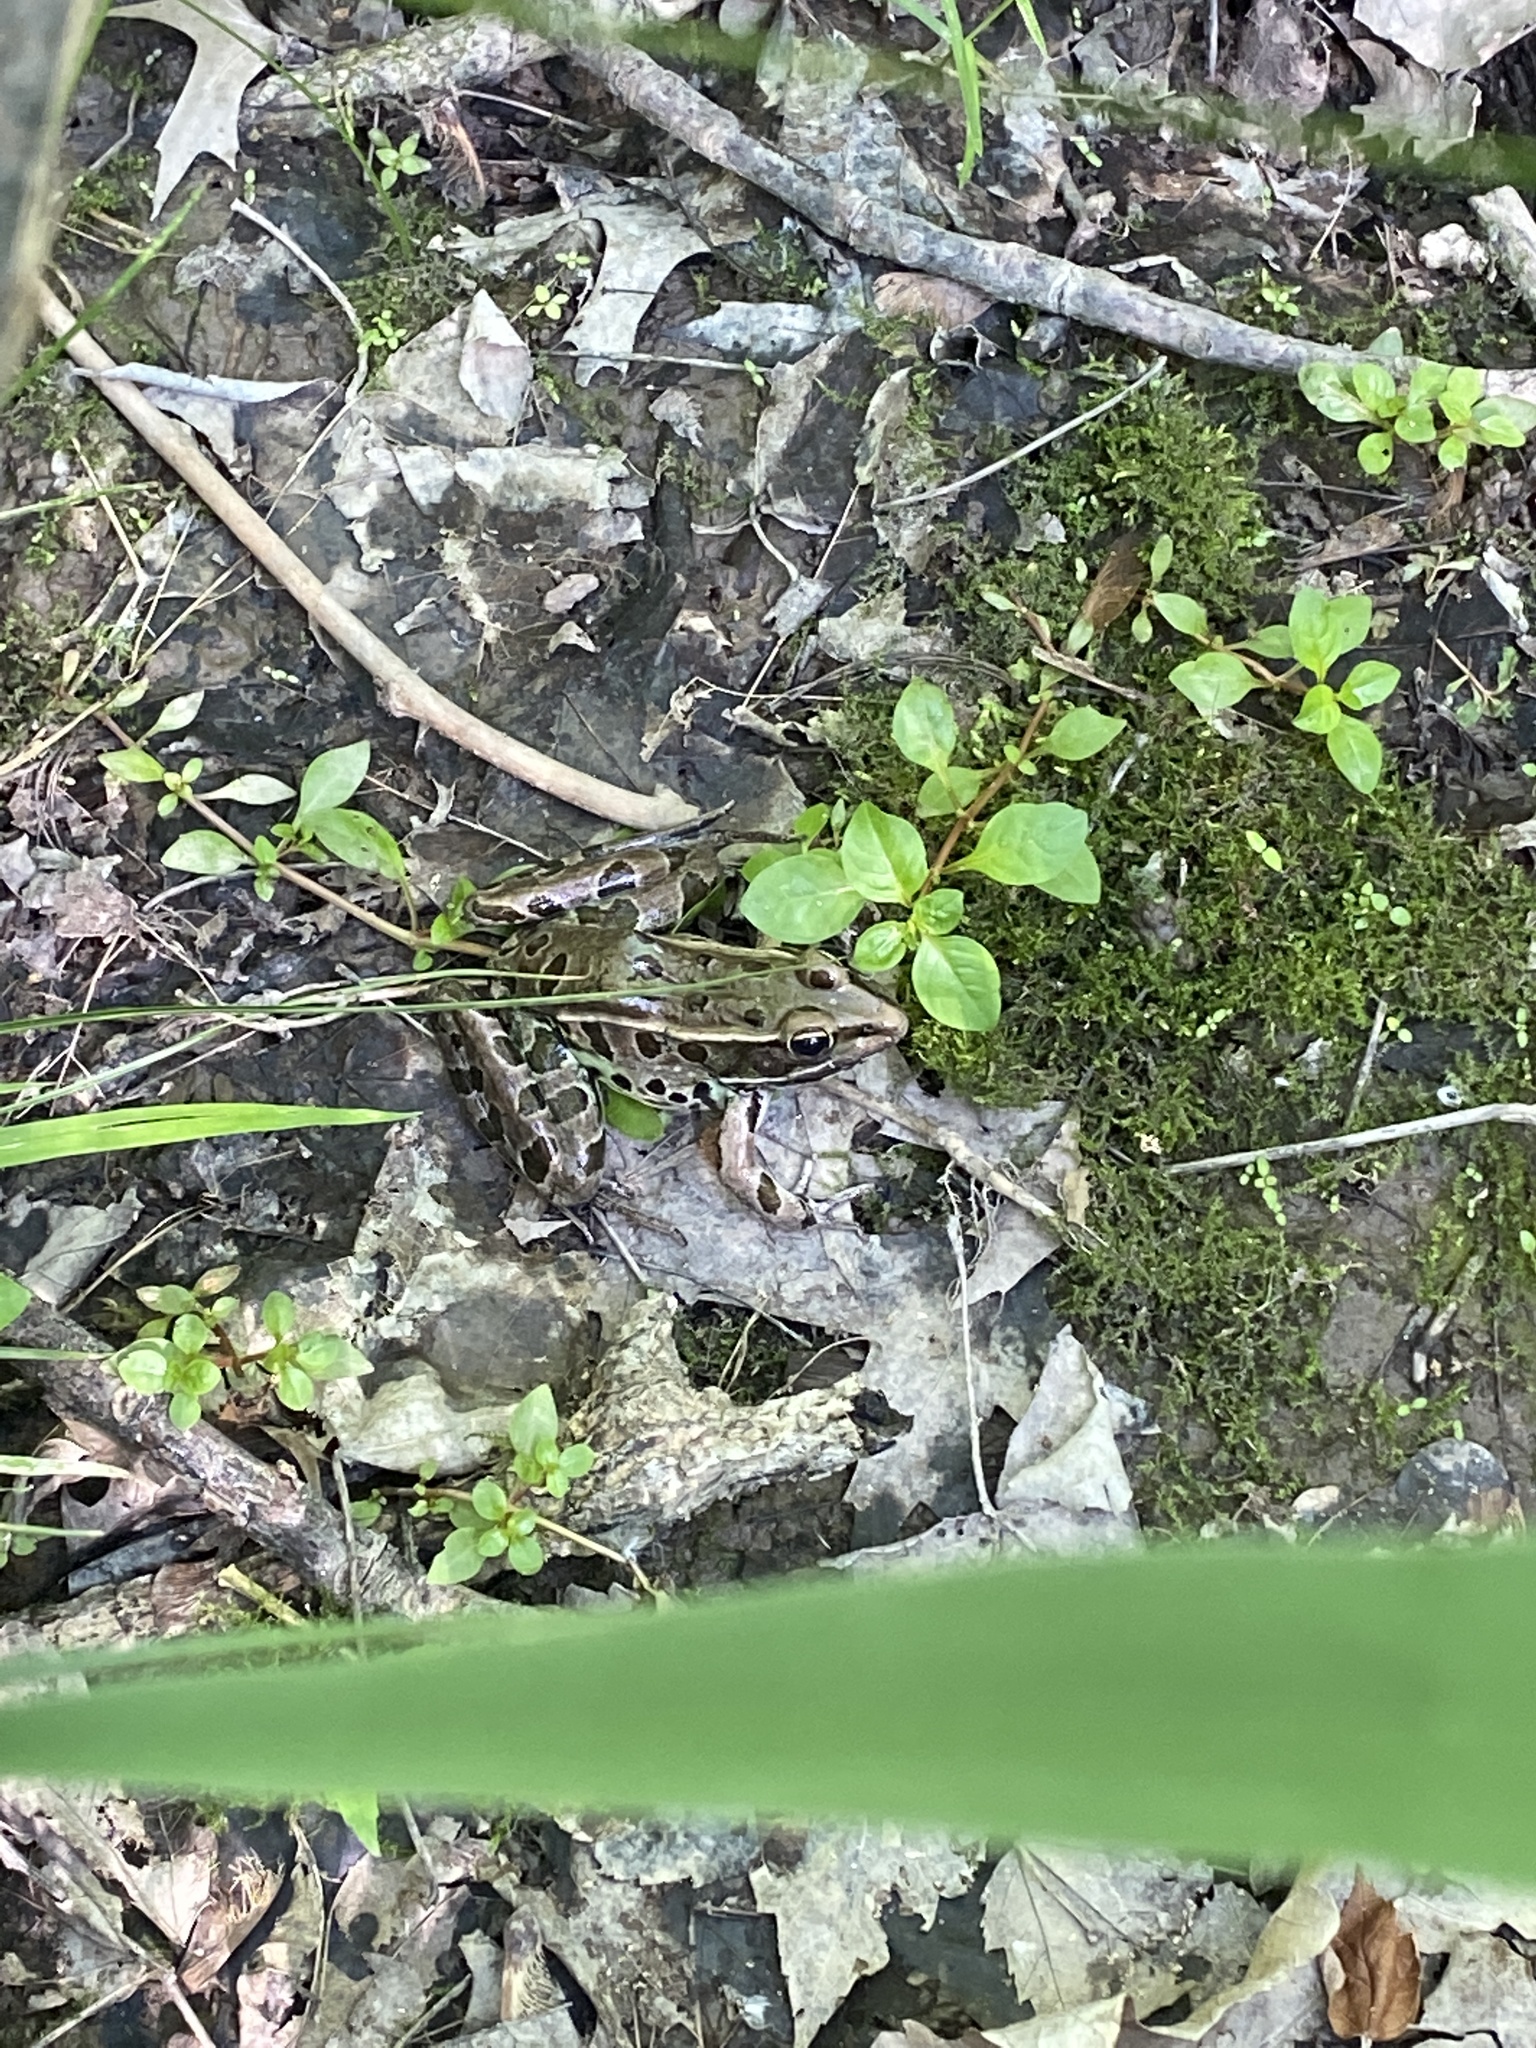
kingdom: Animalia
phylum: Chordata
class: Amphibia
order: Anura
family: Ranidae
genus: Lithobates
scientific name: Lithobates kauffeldi
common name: Mid-atlantic coast leopard frog
